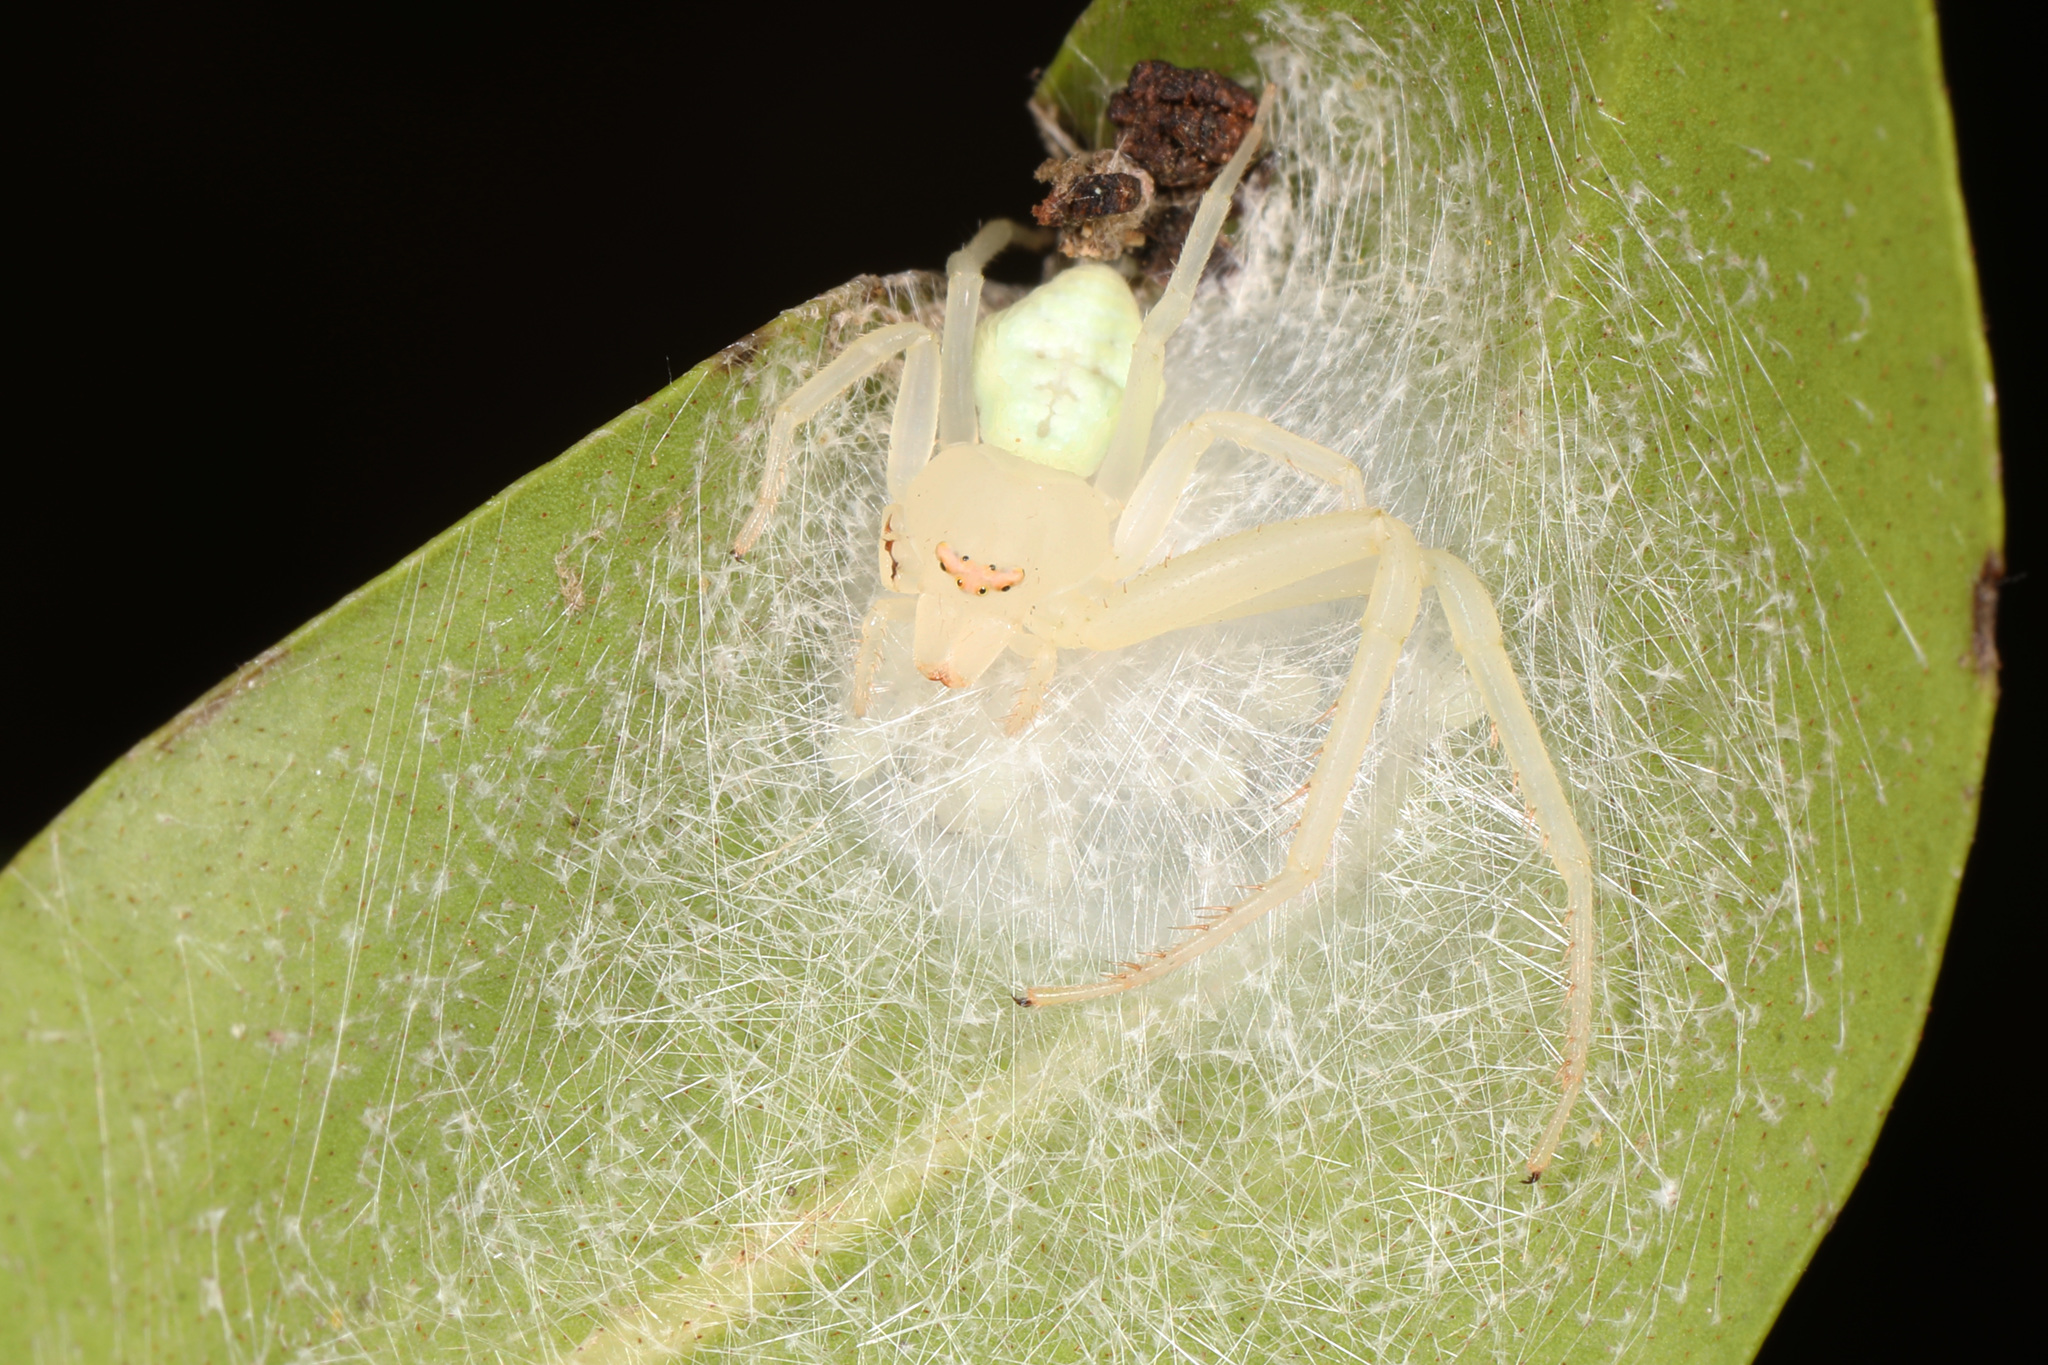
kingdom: Animalia
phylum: Arthropoda
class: Arachnida
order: Araneae
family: Thomisidae
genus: Misumessus
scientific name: Misumessus oblongus
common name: American green crab spider
